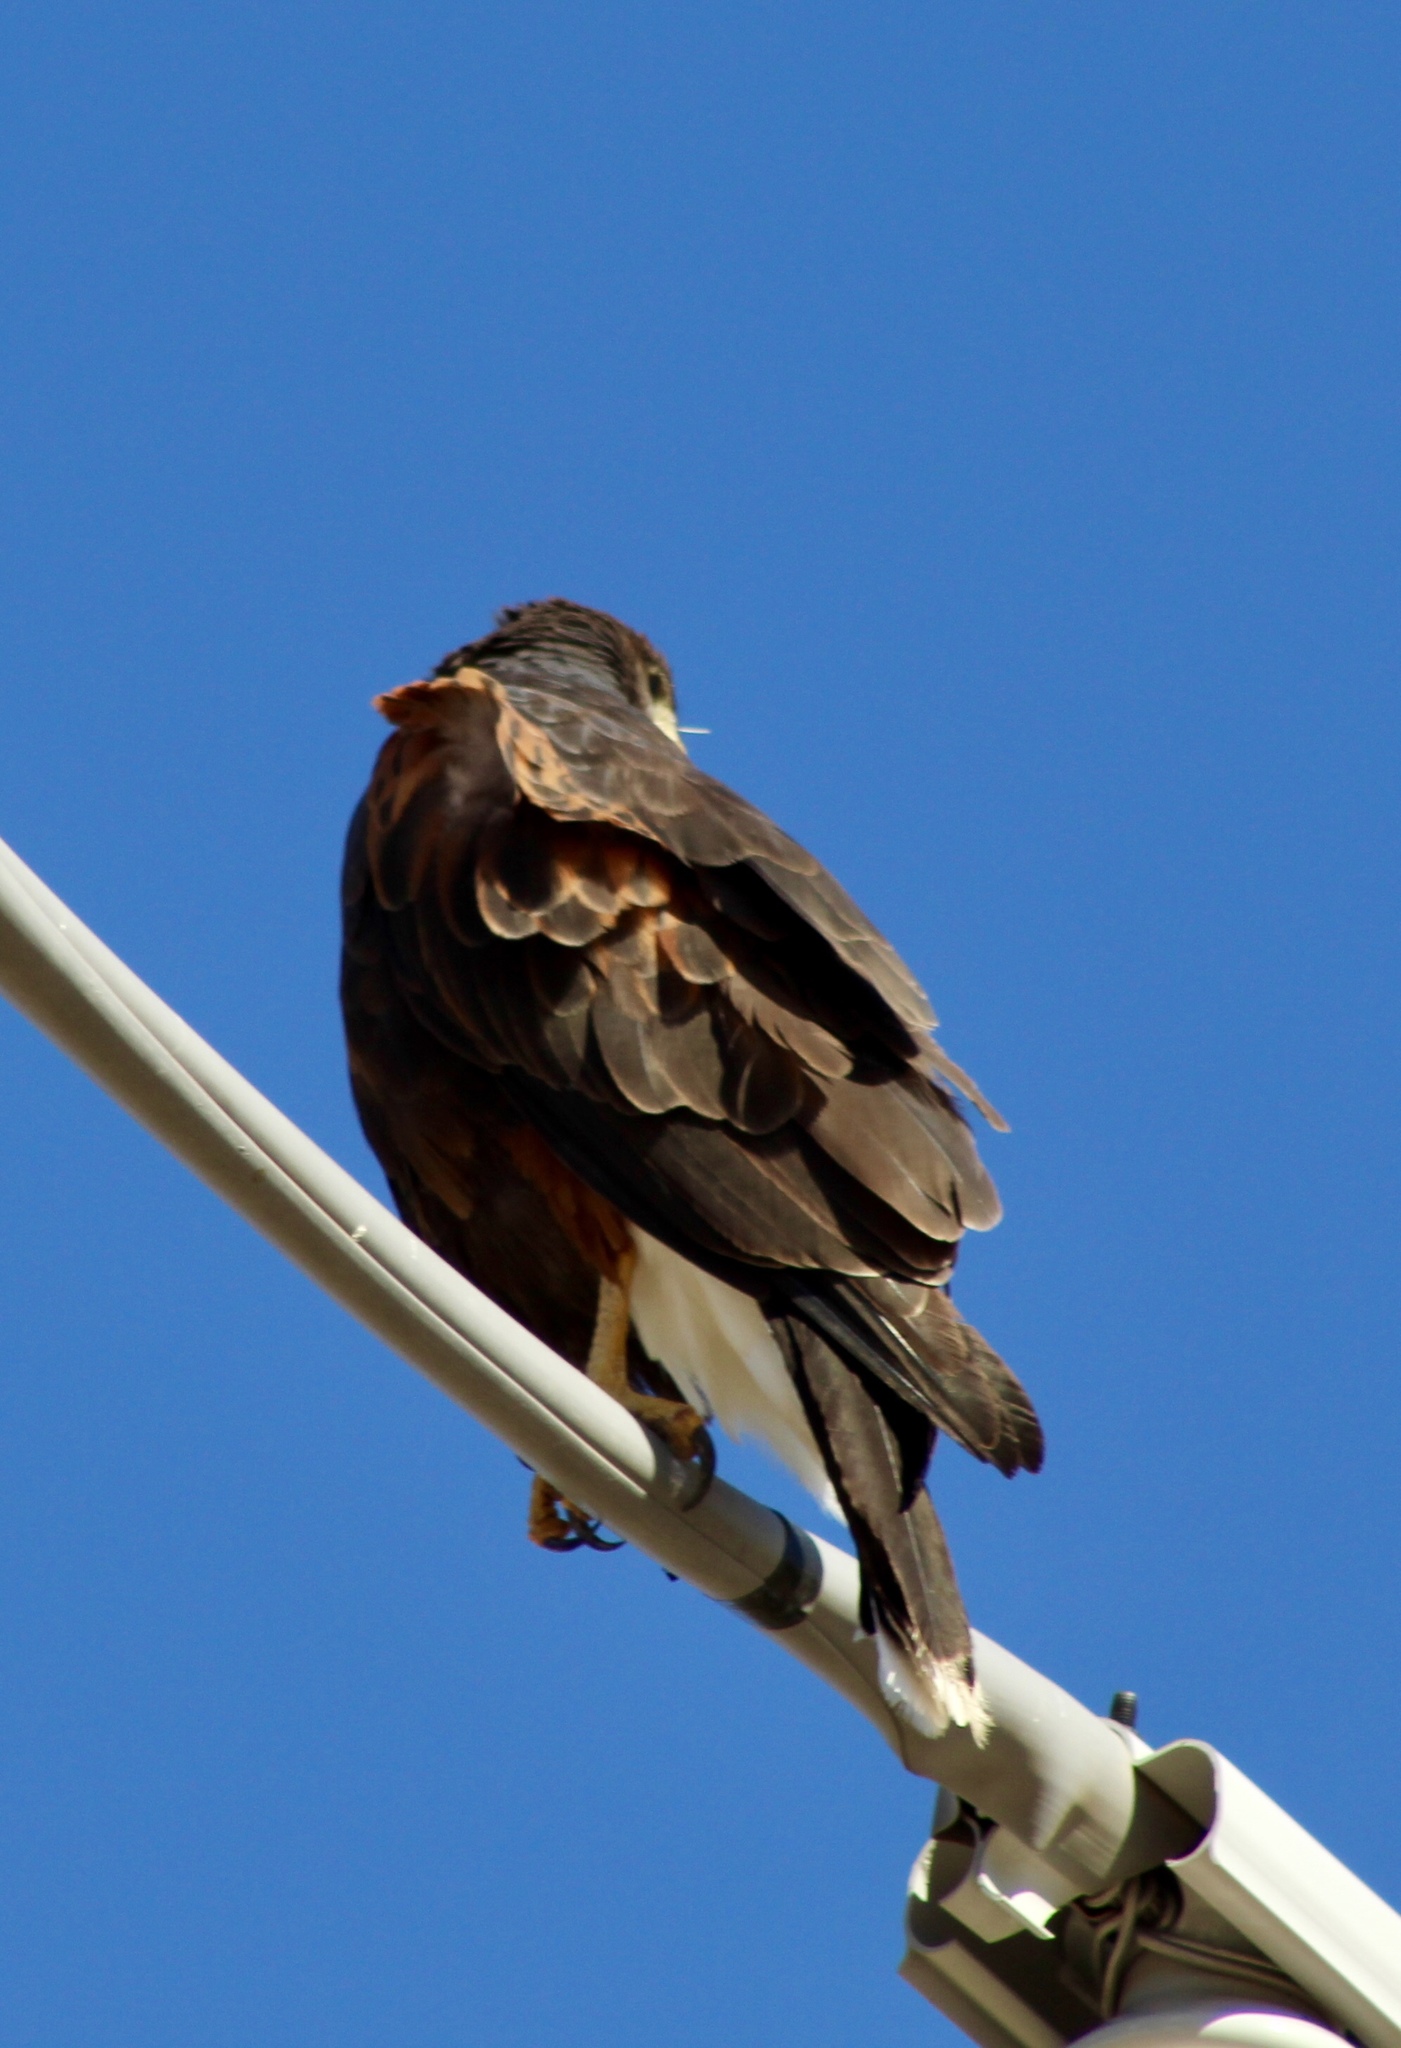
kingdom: Animalia
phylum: Chordata
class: Aves
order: Accipitriformes
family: Accipitridae
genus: Parabuteo
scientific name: Parabuteo unicinctus
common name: Harris's hawk
